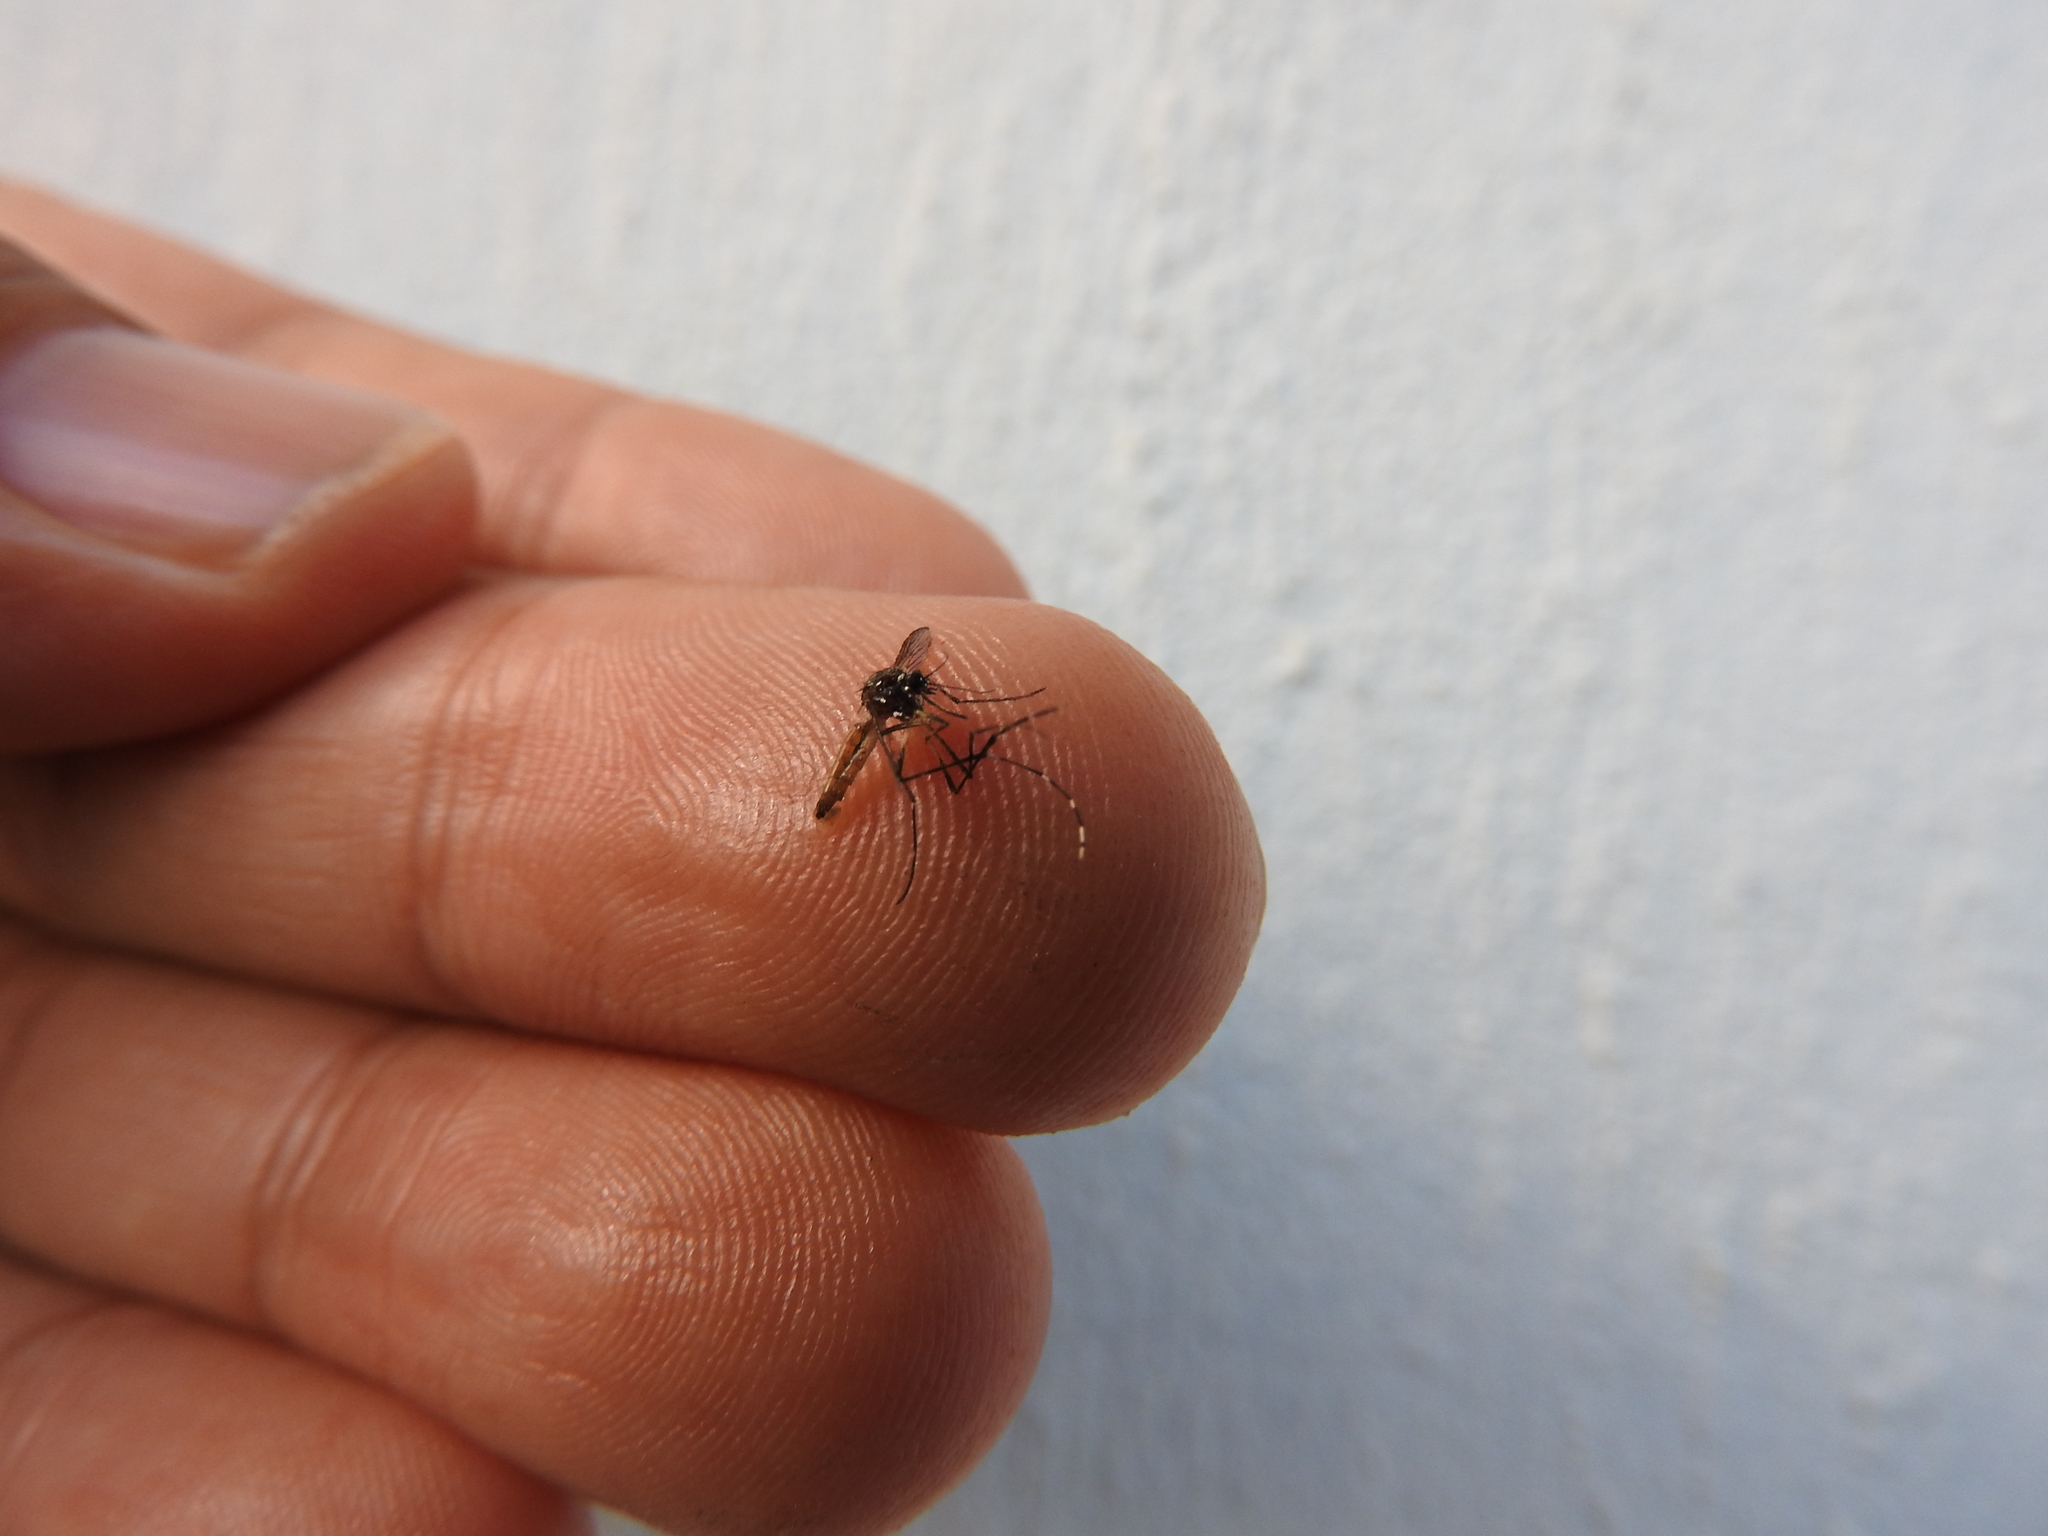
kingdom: Animalia
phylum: Arthropoda
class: Insecta
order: Diptera
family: Culicidae
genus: Aedes
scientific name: Aedes aegypti
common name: Yellow fever mosquito
